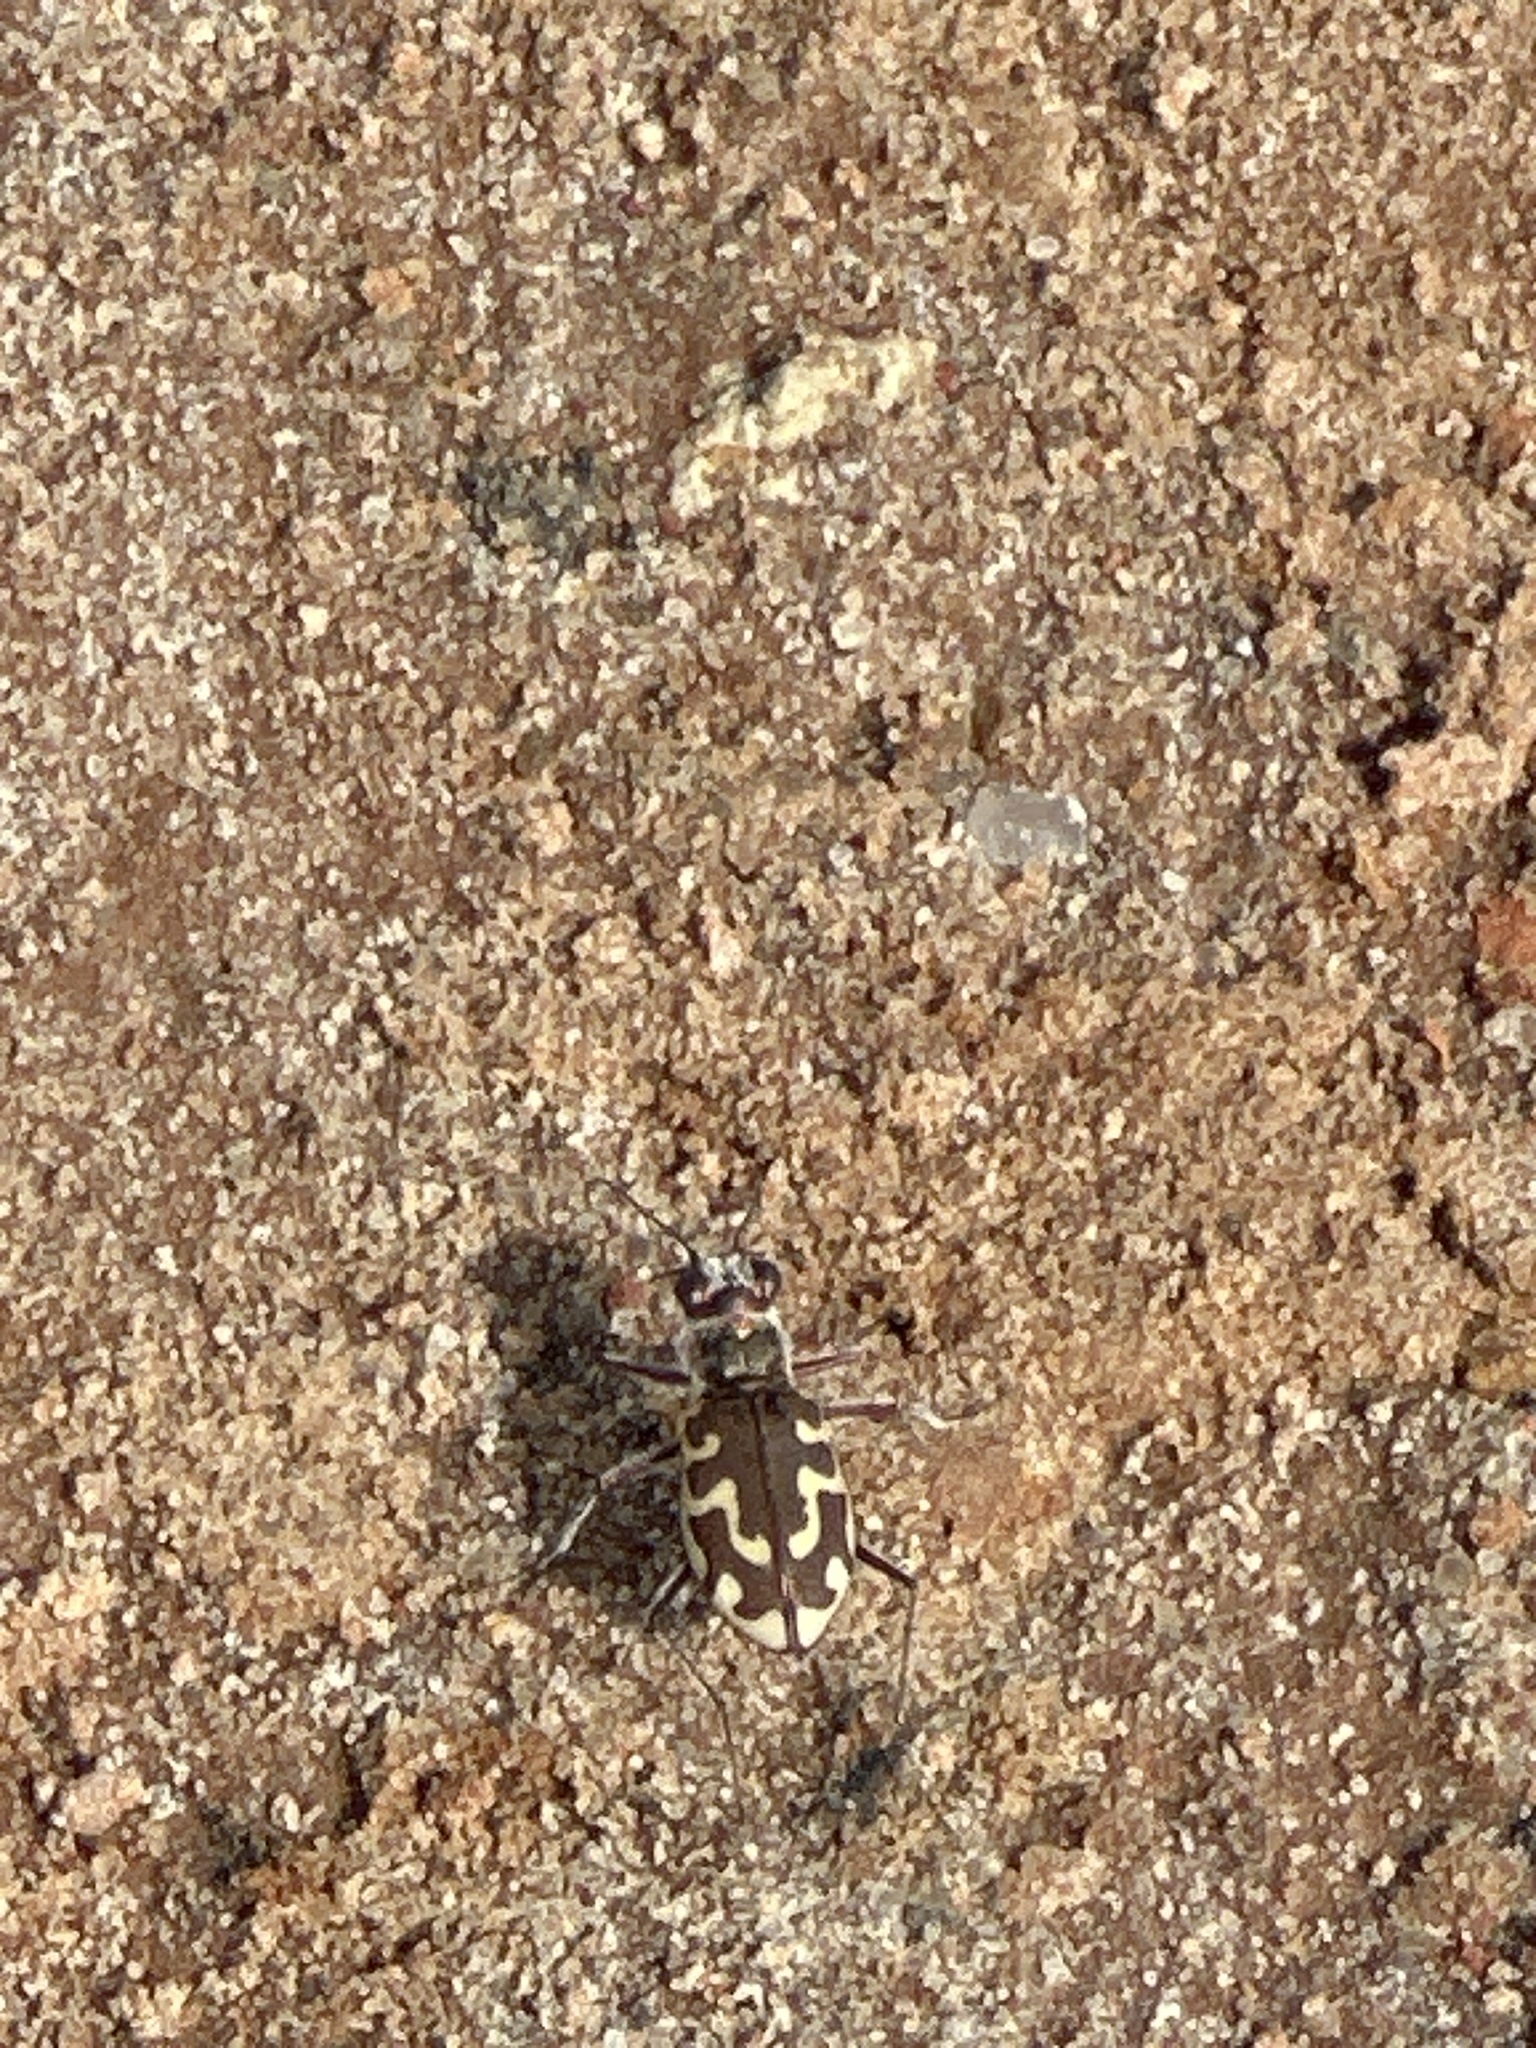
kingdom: Animalia
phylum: Arthropoda
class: Insecta
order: Coleoptera
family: Carabidae
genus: Cicindela
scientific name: Cicindela hirticollis
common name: Hairy-necked tiger beetle
